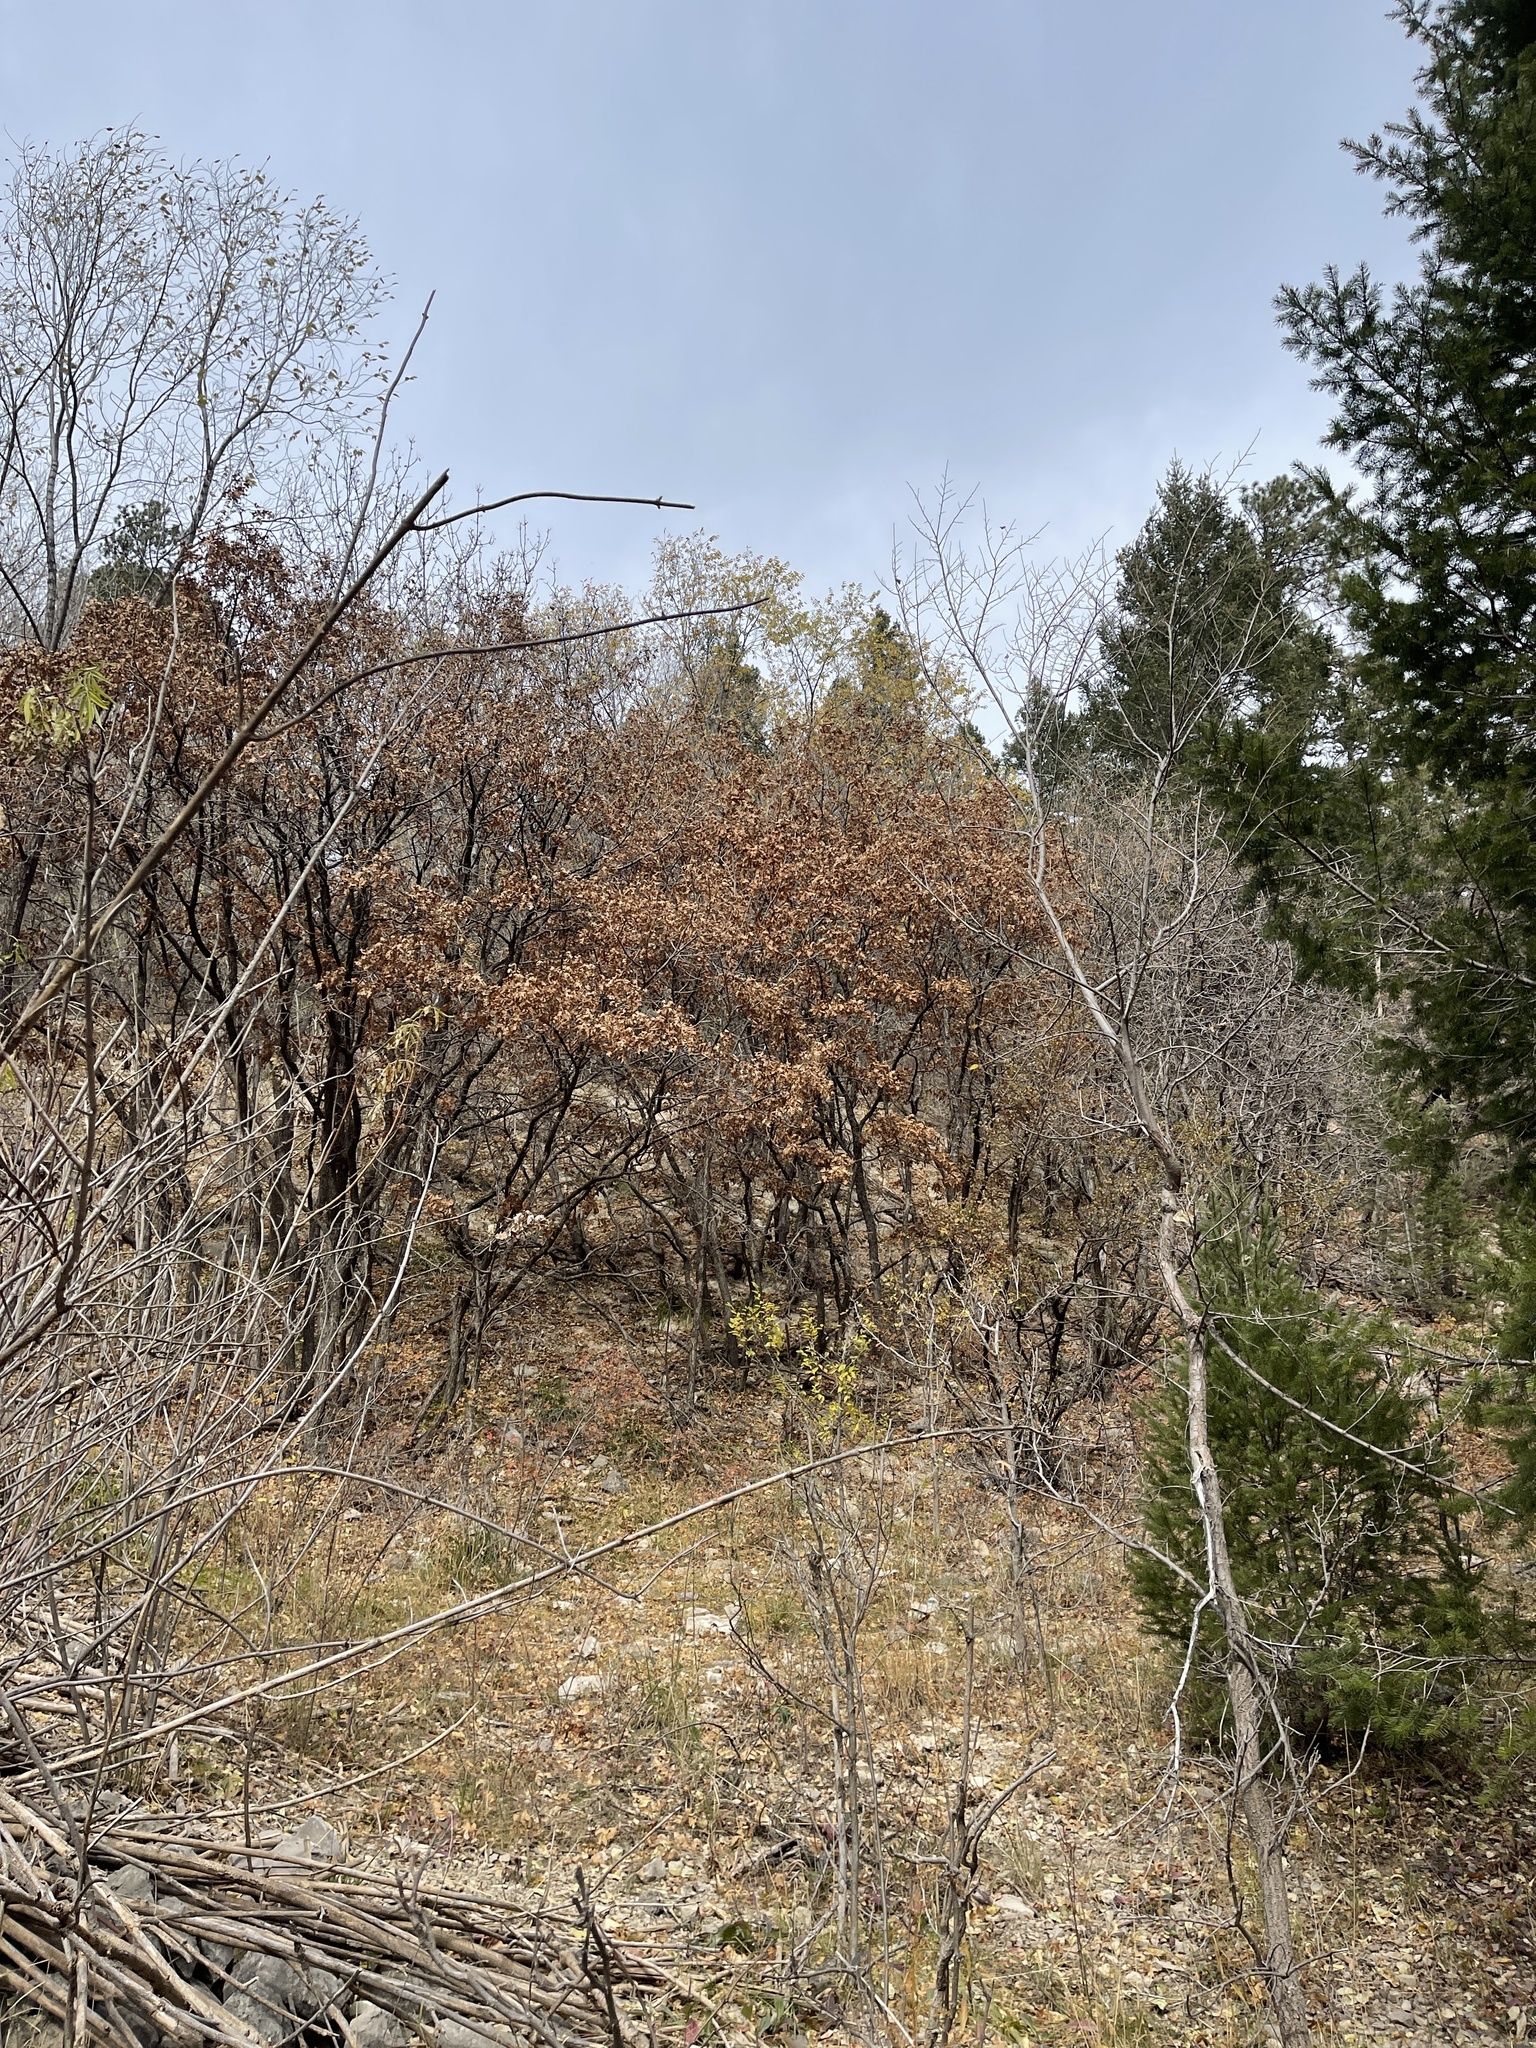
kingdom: Plantae
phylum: Tracheophyta
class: Magnoliopsida
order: Fagales
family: Fagaceae
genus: Quercus
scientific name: Quercus gambelii
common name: Gambel oak
